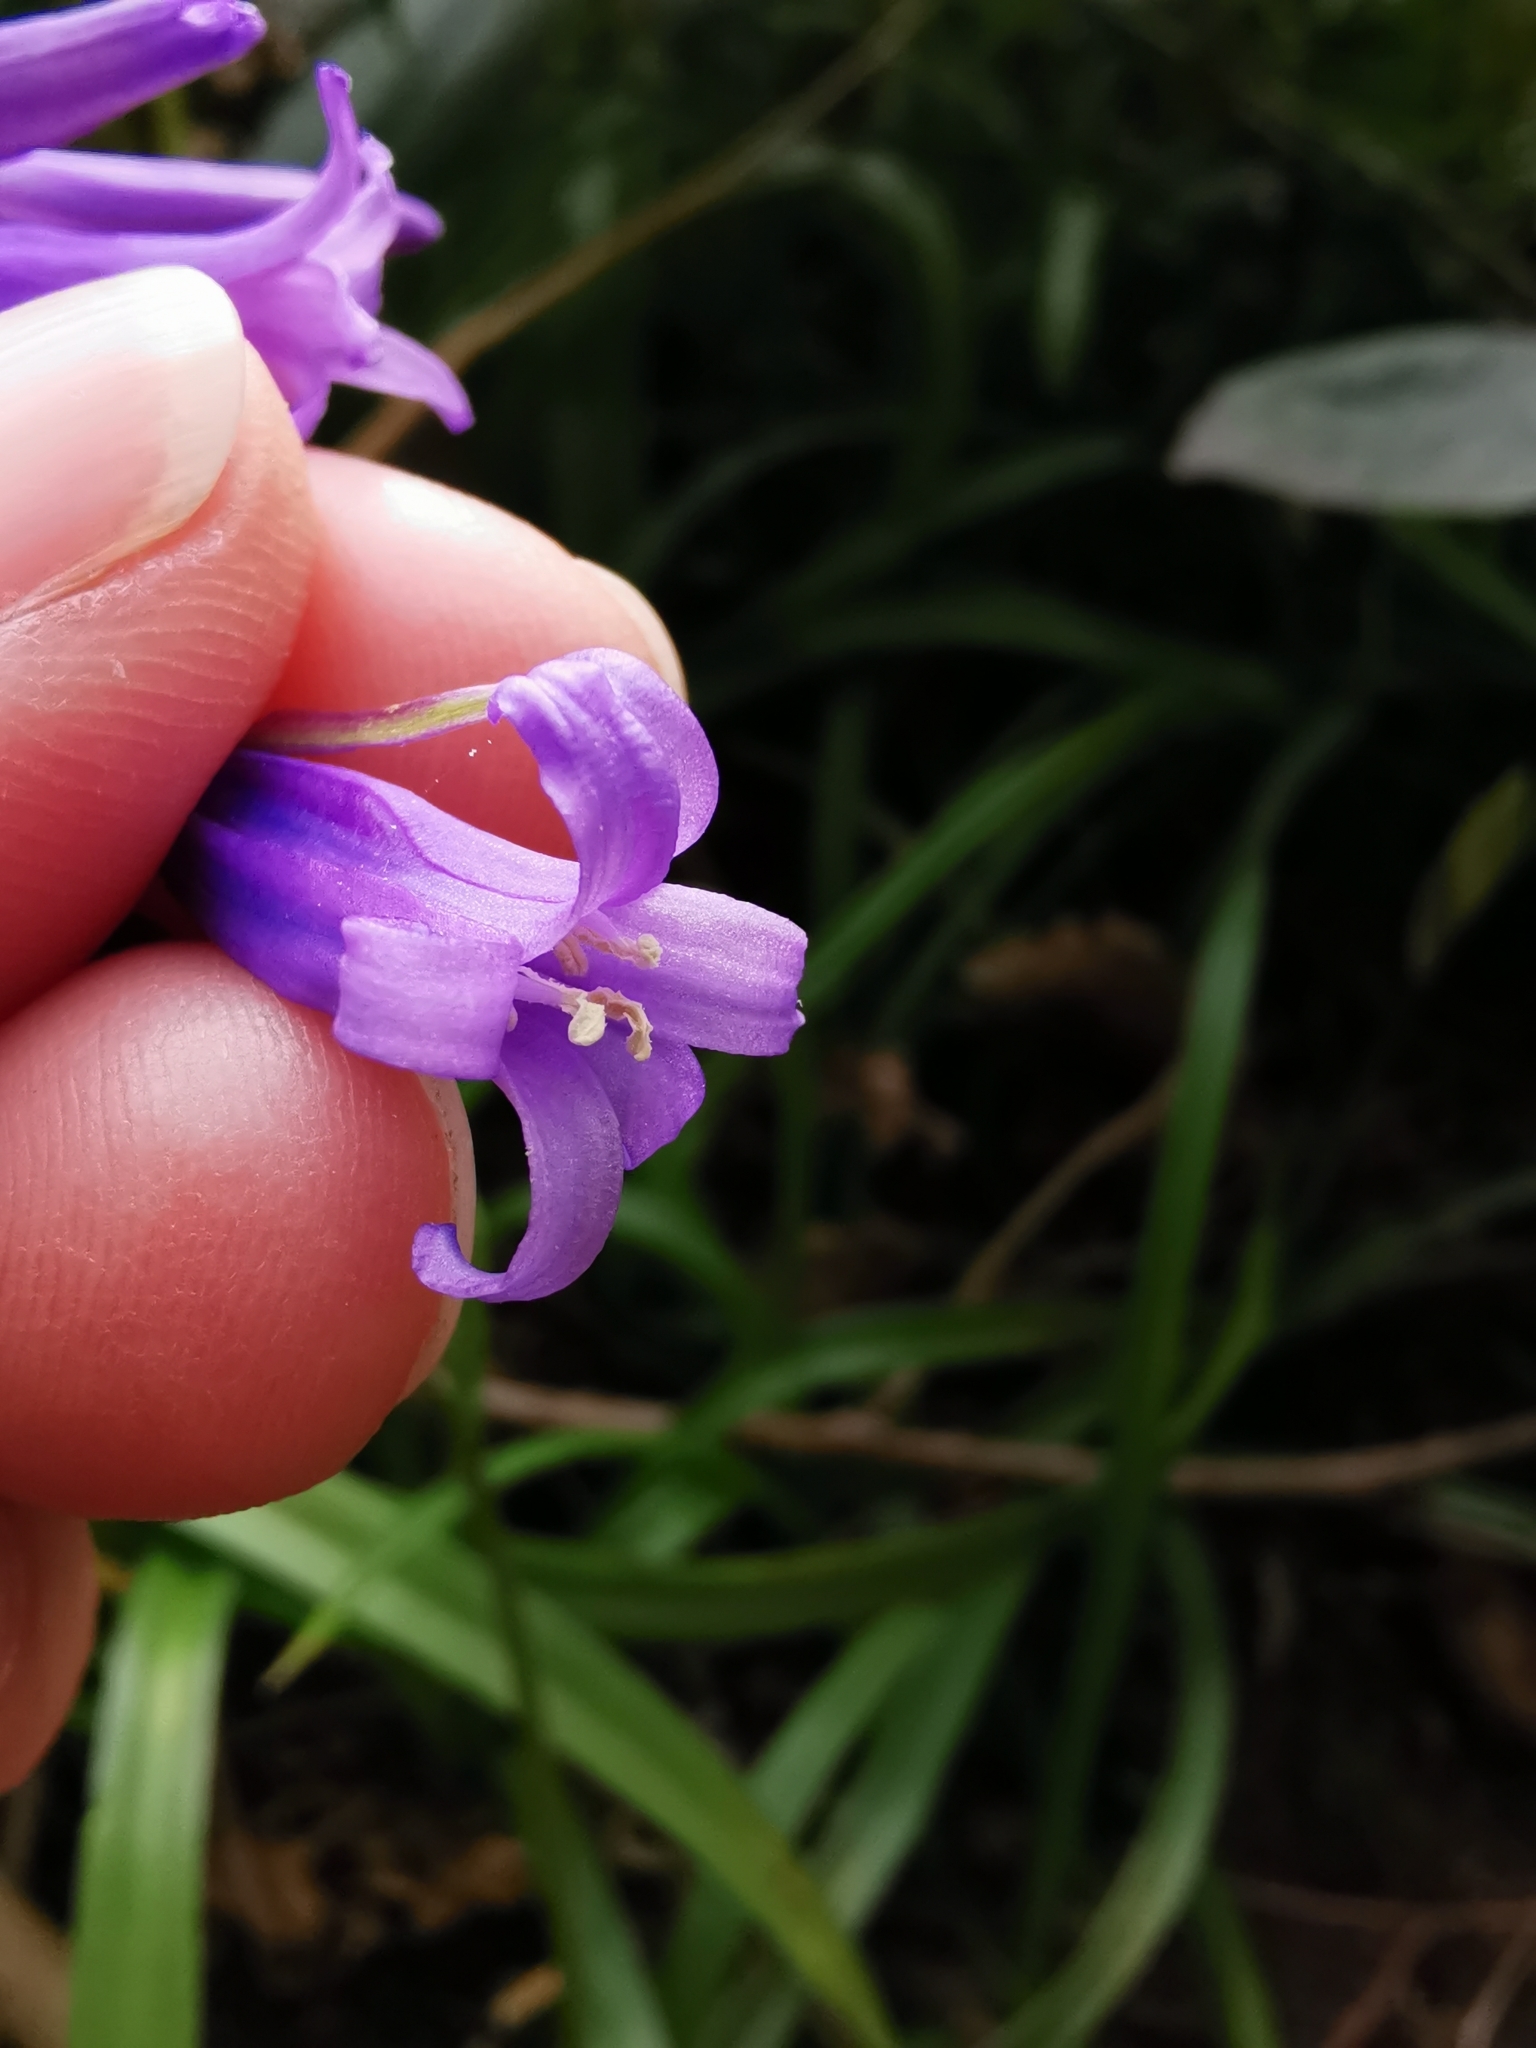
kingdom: Plantae
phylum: Tracheophyta
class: Liliopsida
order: Asparagales
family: Asparagaceae
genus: Hyacinthoides
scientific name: Hyacinthoides non-scripta
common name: Bluebell
